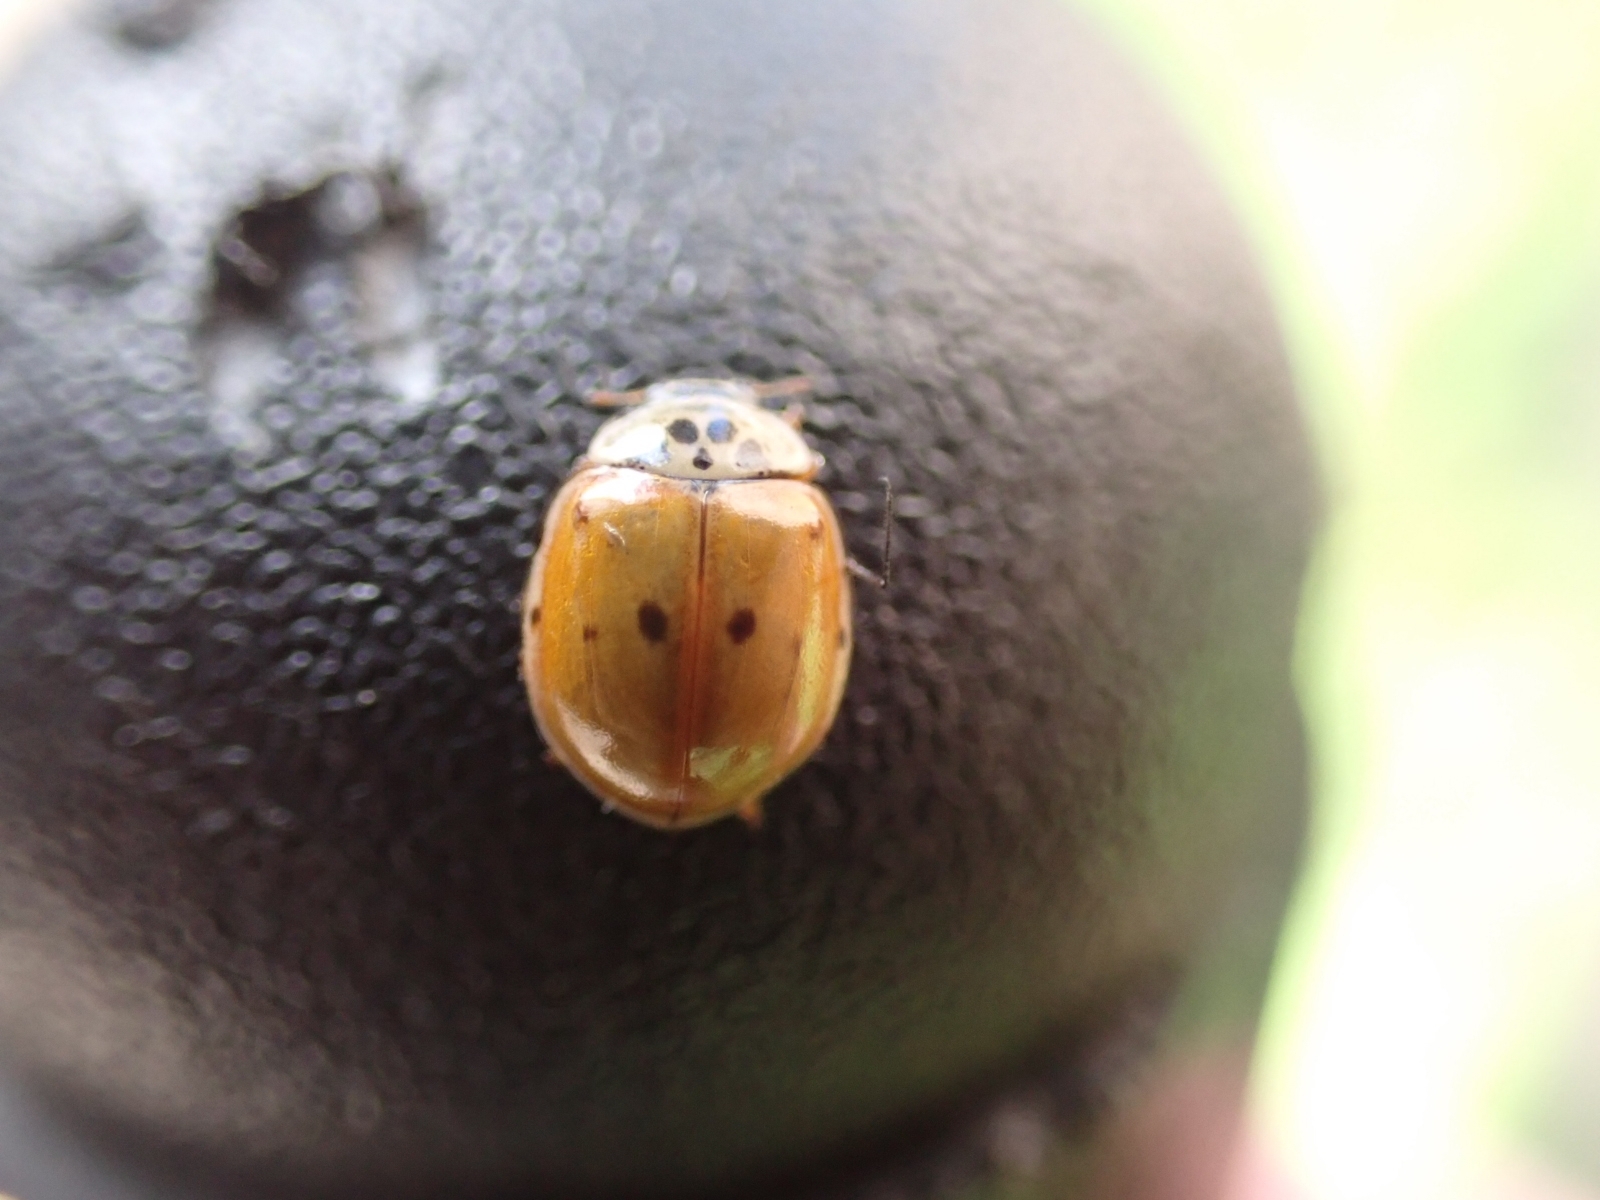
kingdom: Animalia
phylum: Arthropoda
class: Insecta
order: Coleoptera
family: Coccinellidae
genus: Adalia
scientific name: Adalia decempunctata
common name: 10-spot ladybird
